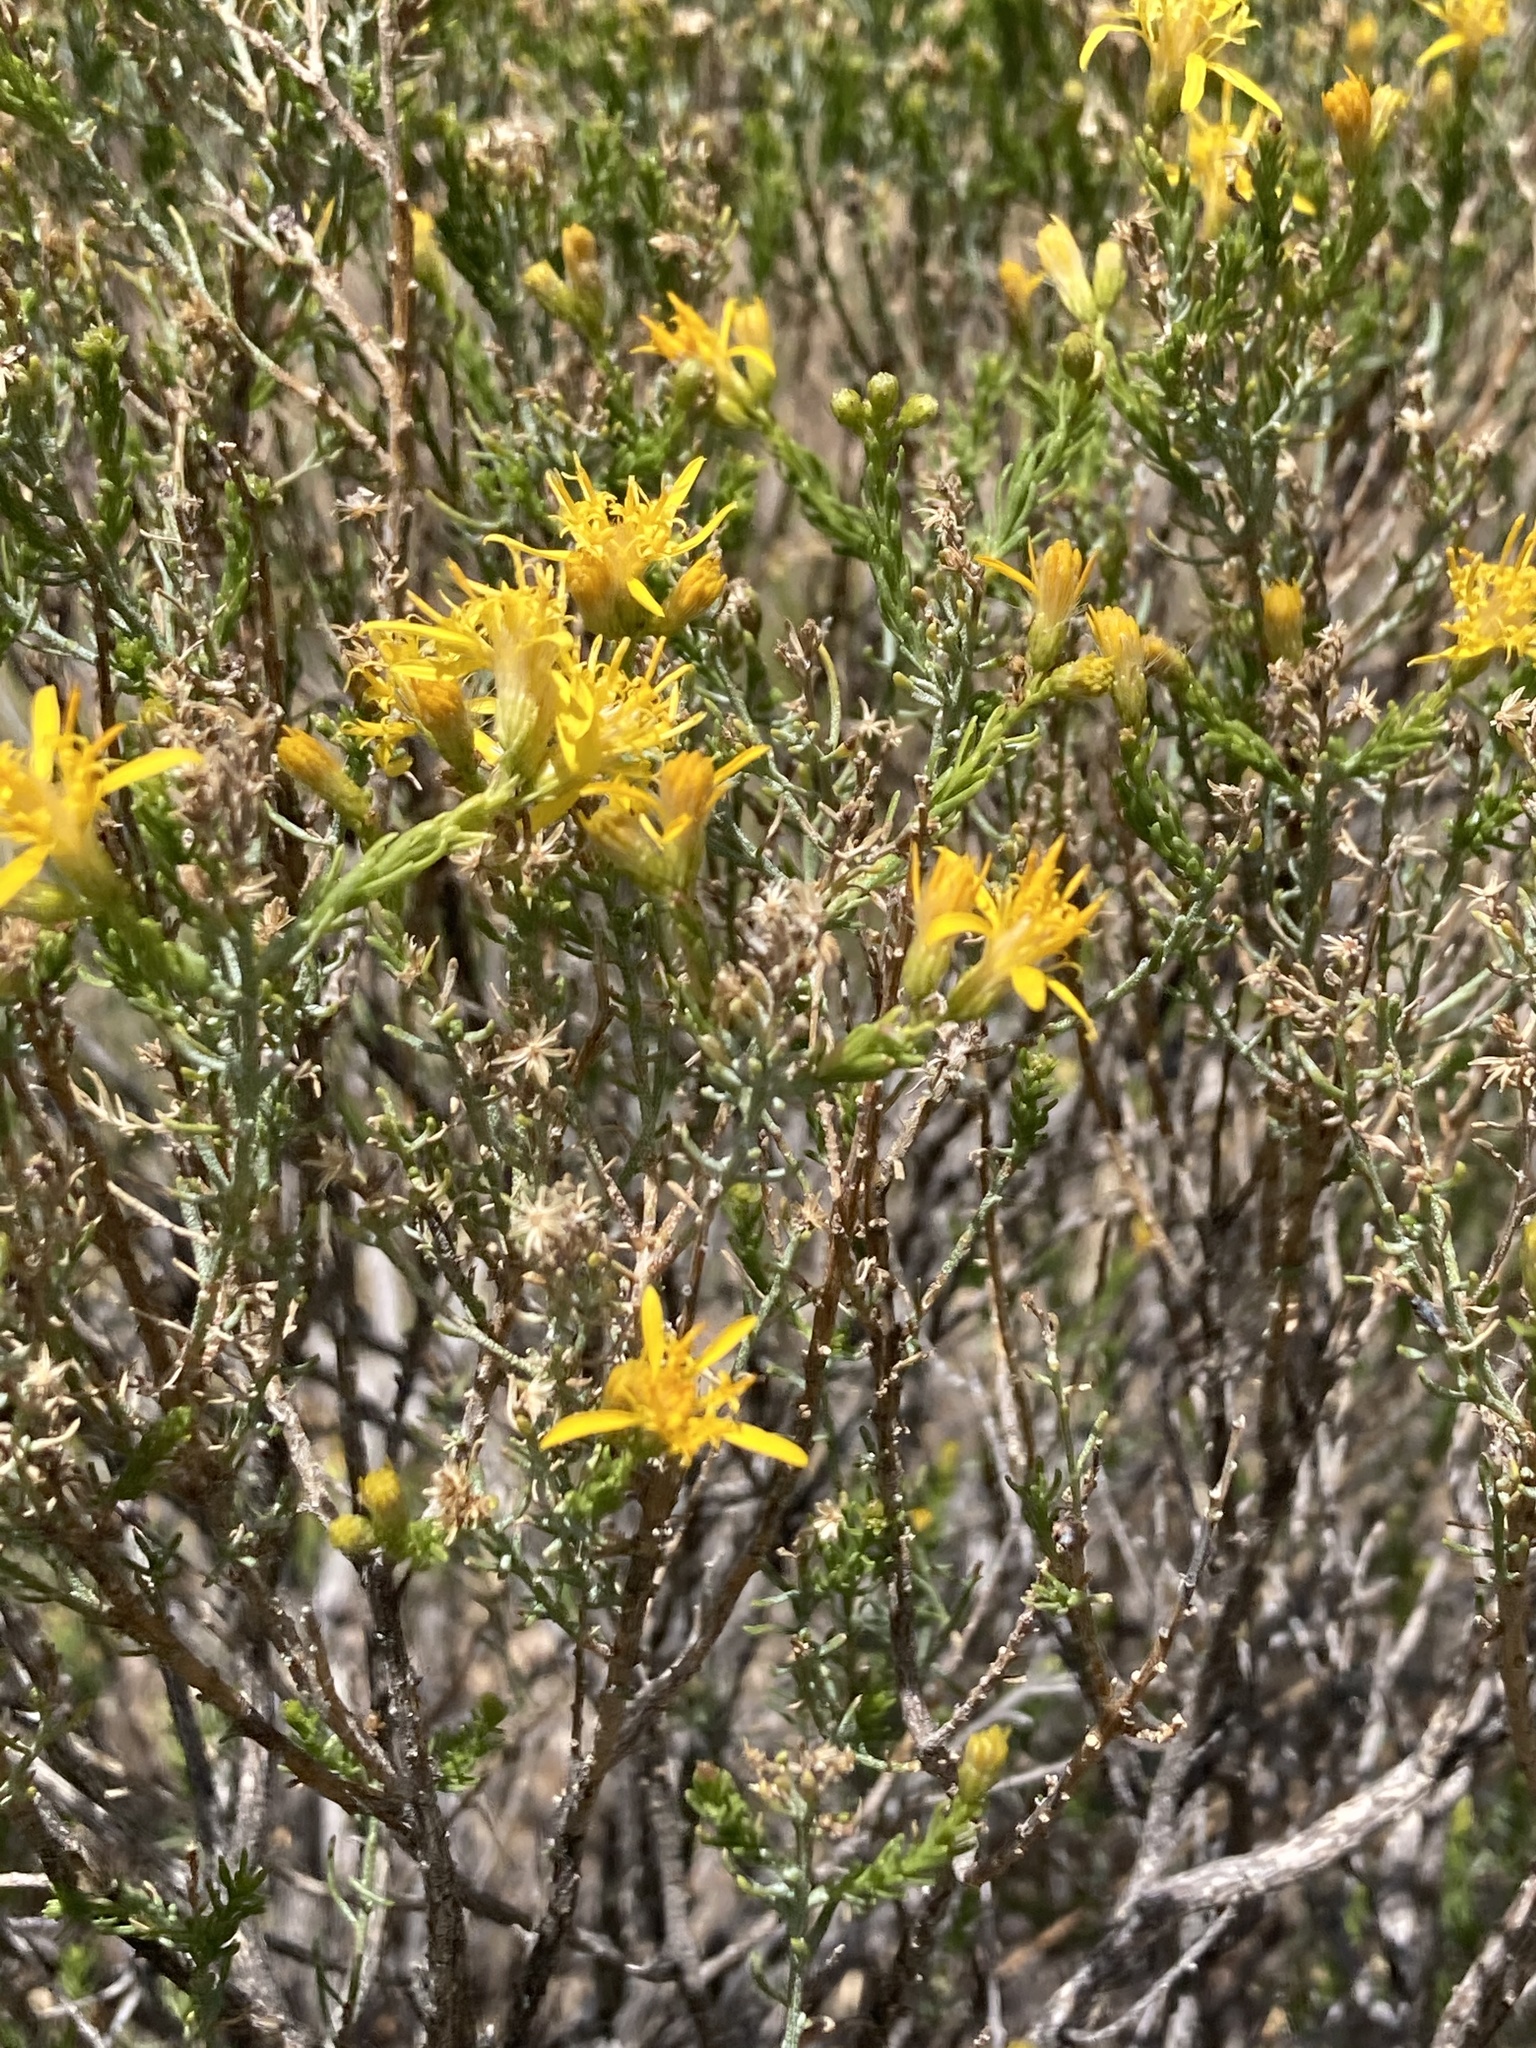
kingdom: Plantae
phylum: Tracheophyta
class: Magnoliopsida
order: Asterales
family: Asteraceae
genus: Ericameria
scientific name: Ericameria laricifolia
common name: Turpentine-bush
